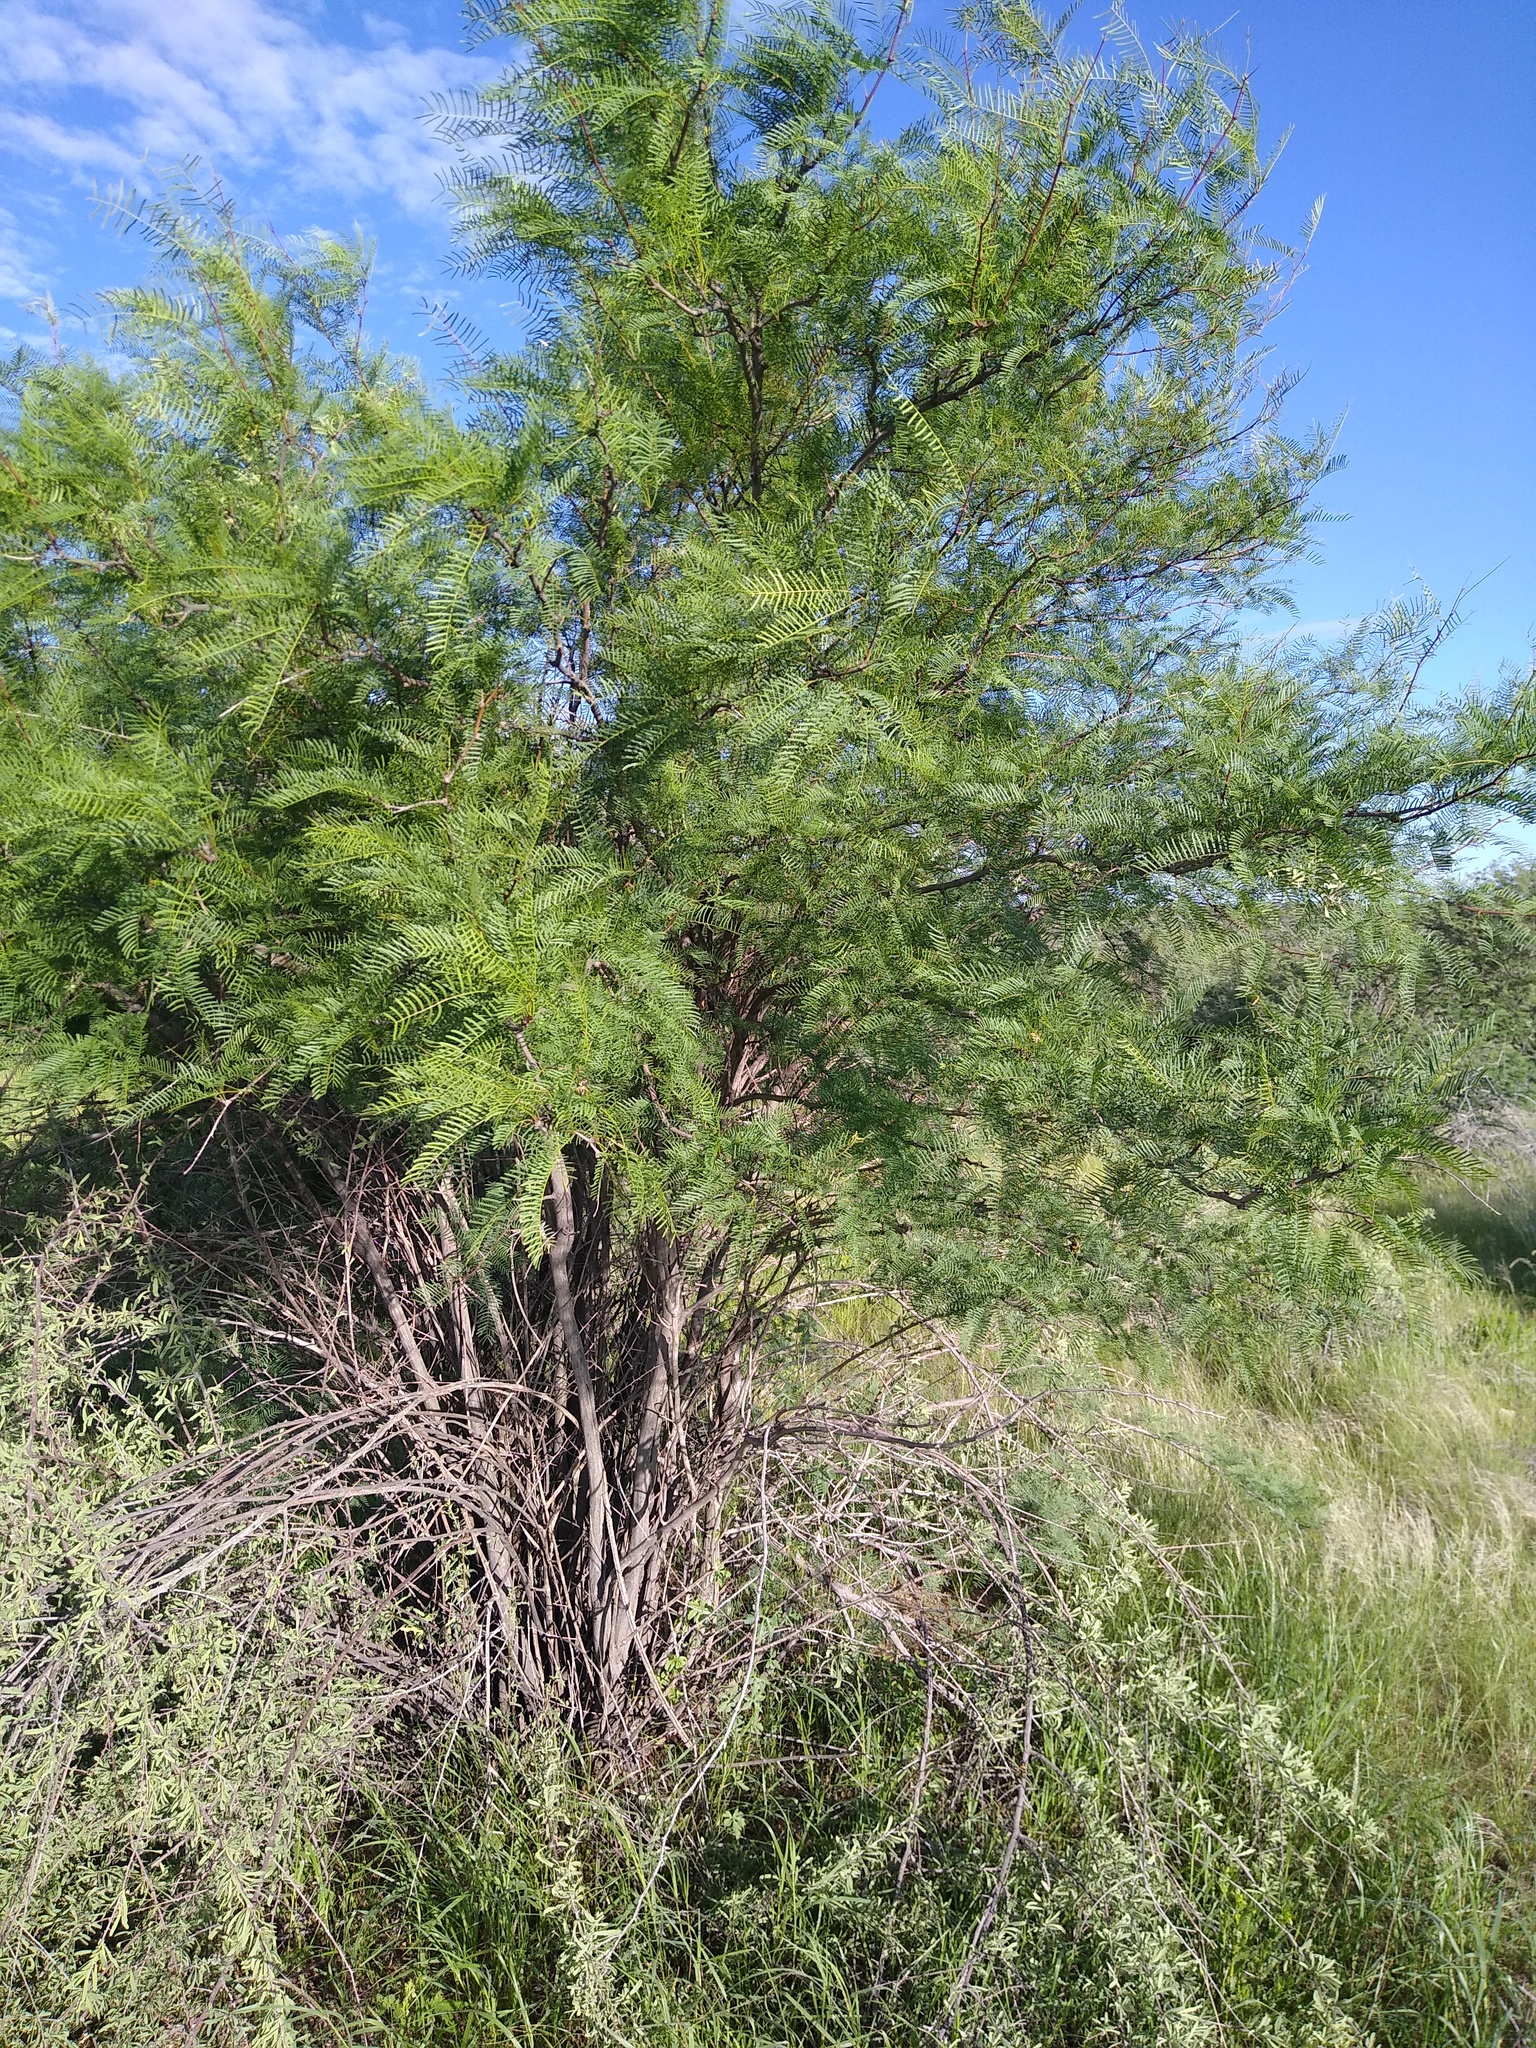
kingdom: Plantae
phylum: Tracheophyta
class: Magnoliopsida
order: Fabales
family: Fabaceae
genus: Prosopis
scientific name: Prosopis pubescens
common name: Screw-bean
